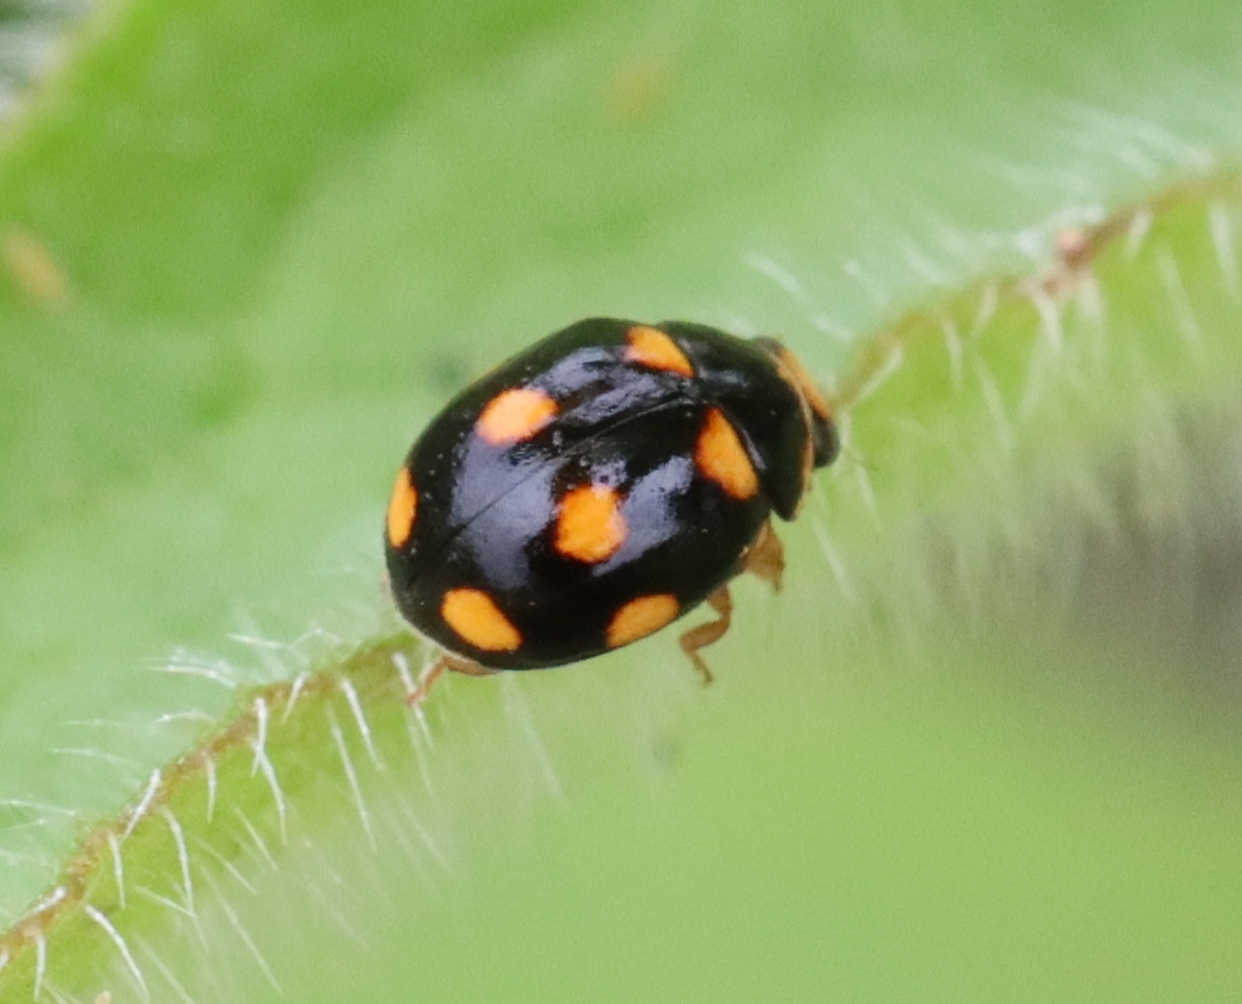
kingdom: Animalia
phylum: Arthropoda
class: Insecta
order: Coleoptera
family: Coccinellidae
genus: Brachiacantha
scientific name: Brachiacantha ursina
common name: Ursine spurleg lady beetle
